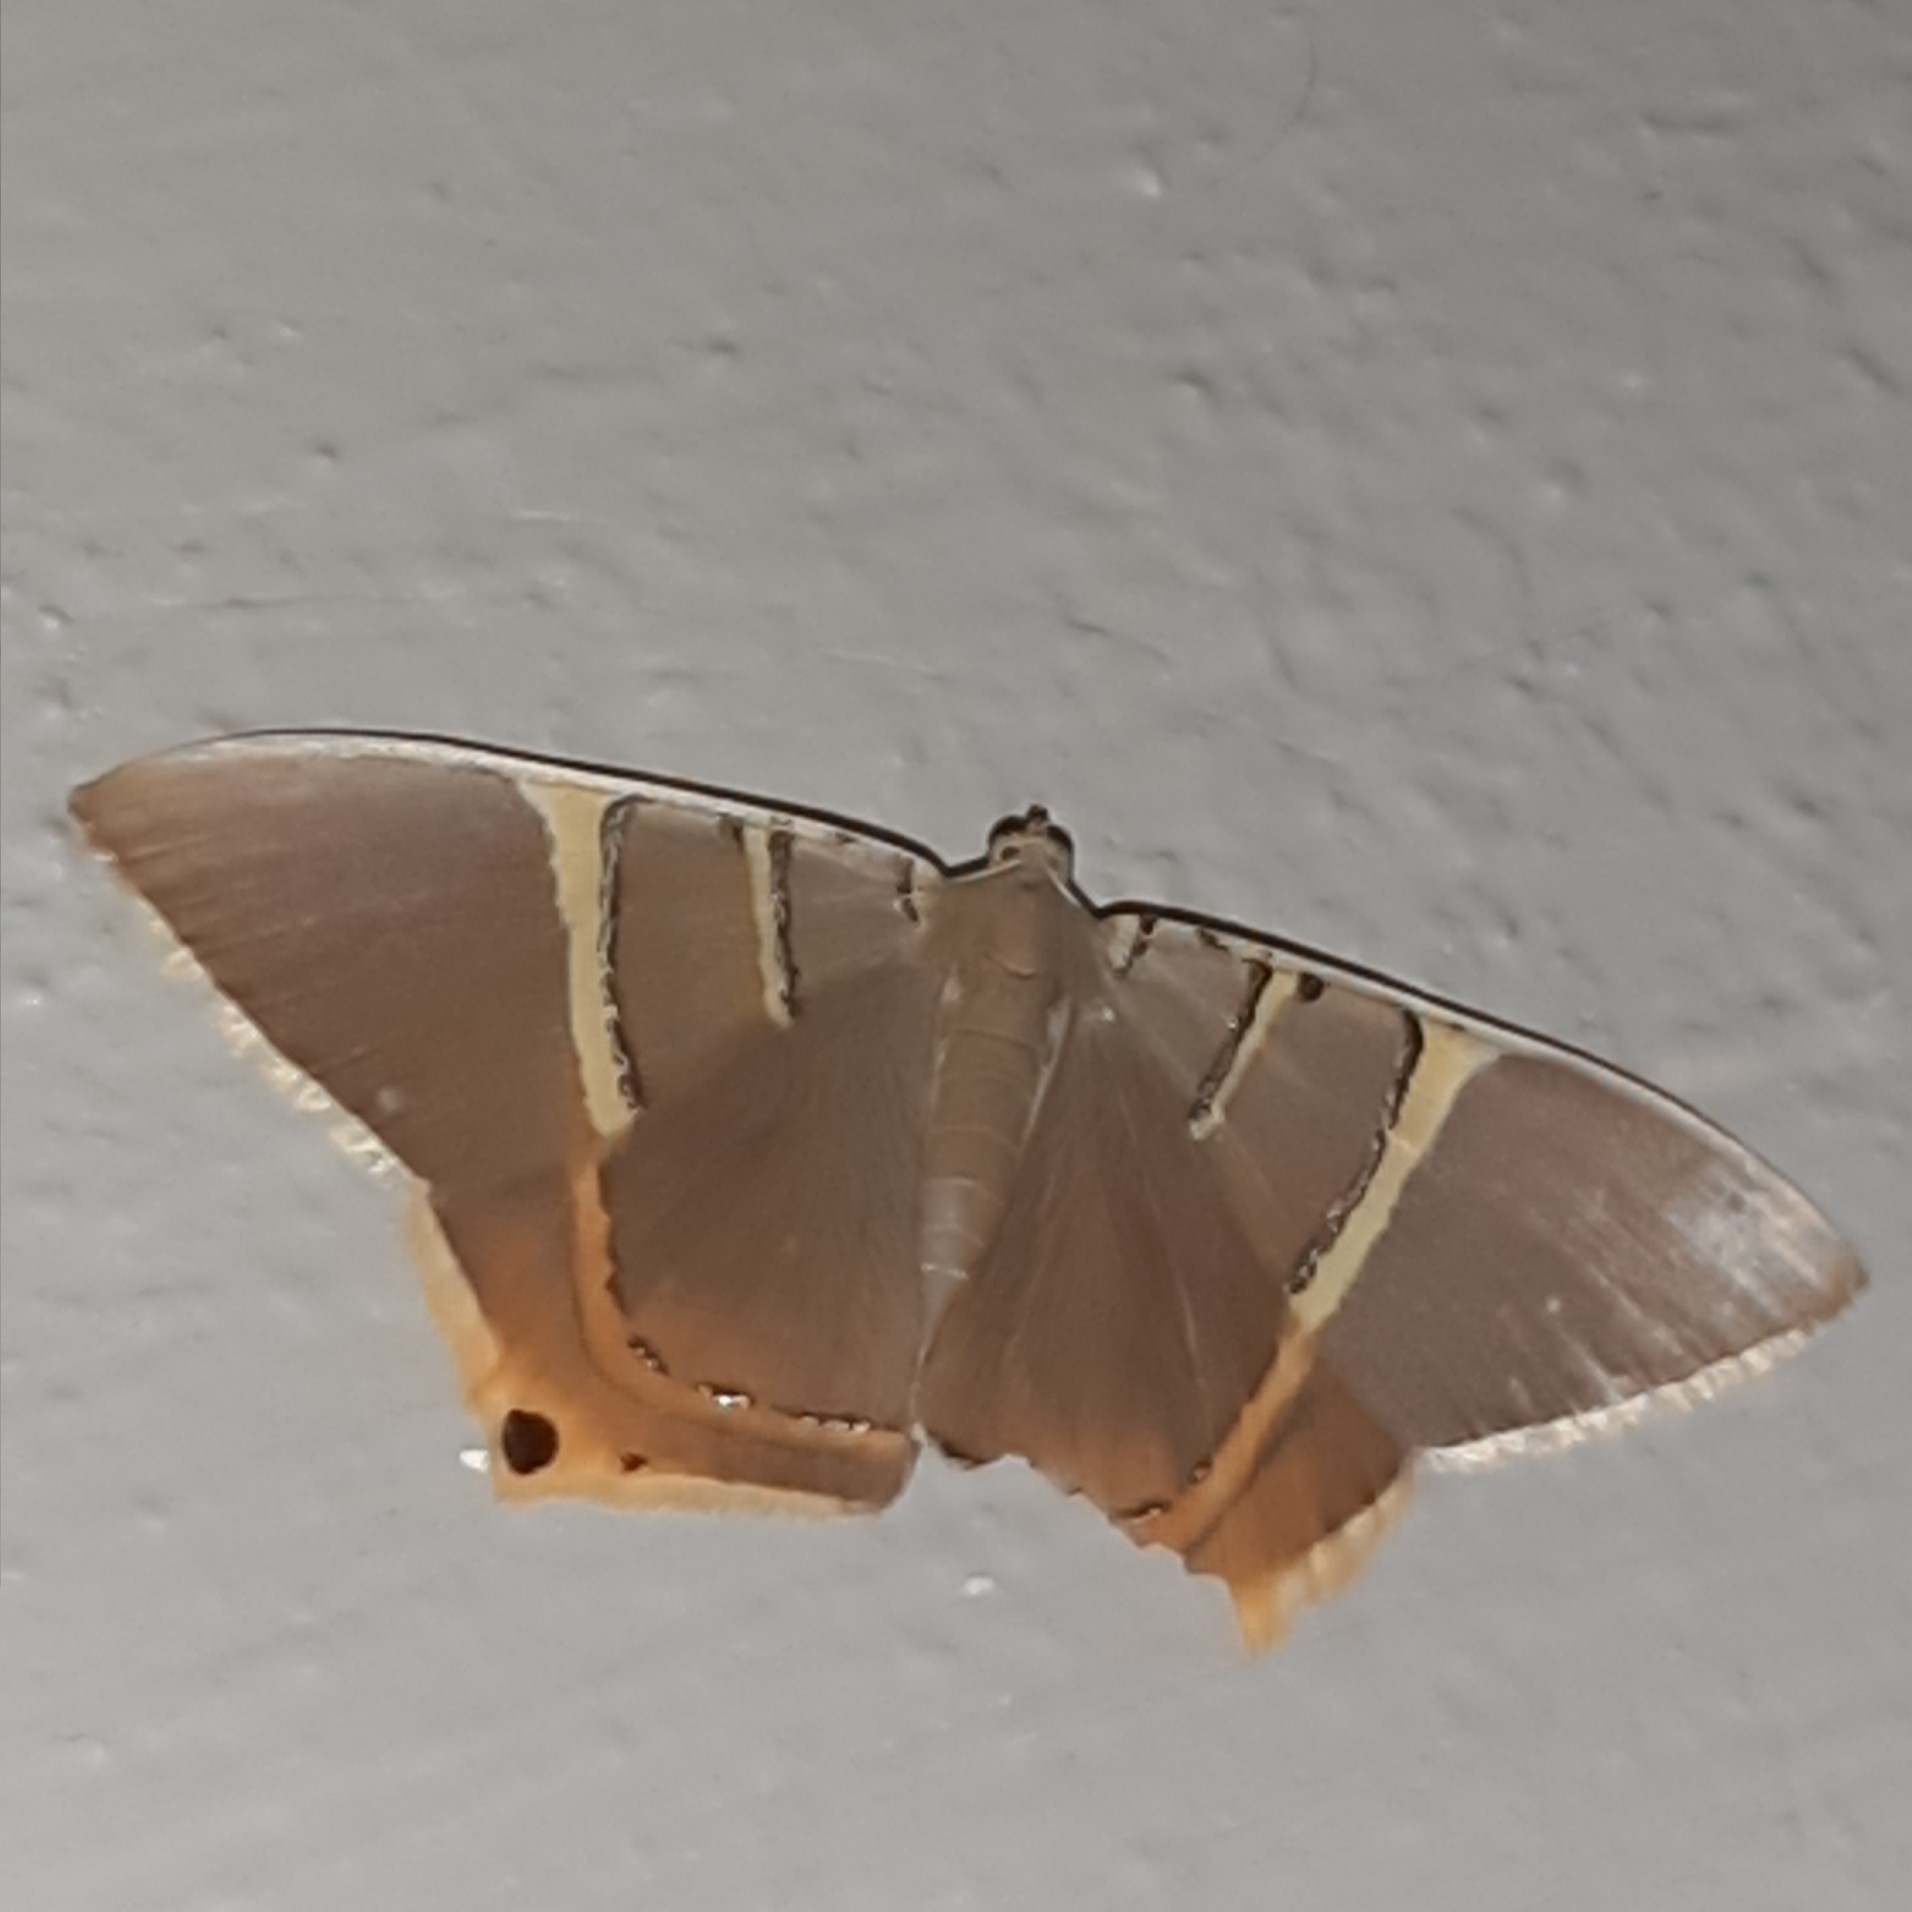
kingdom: Animalia
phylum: Arthropoda
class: Insecta
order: Lepidoptera
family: Geometridae
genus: Phrygionis
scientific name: Phrygionis polita
